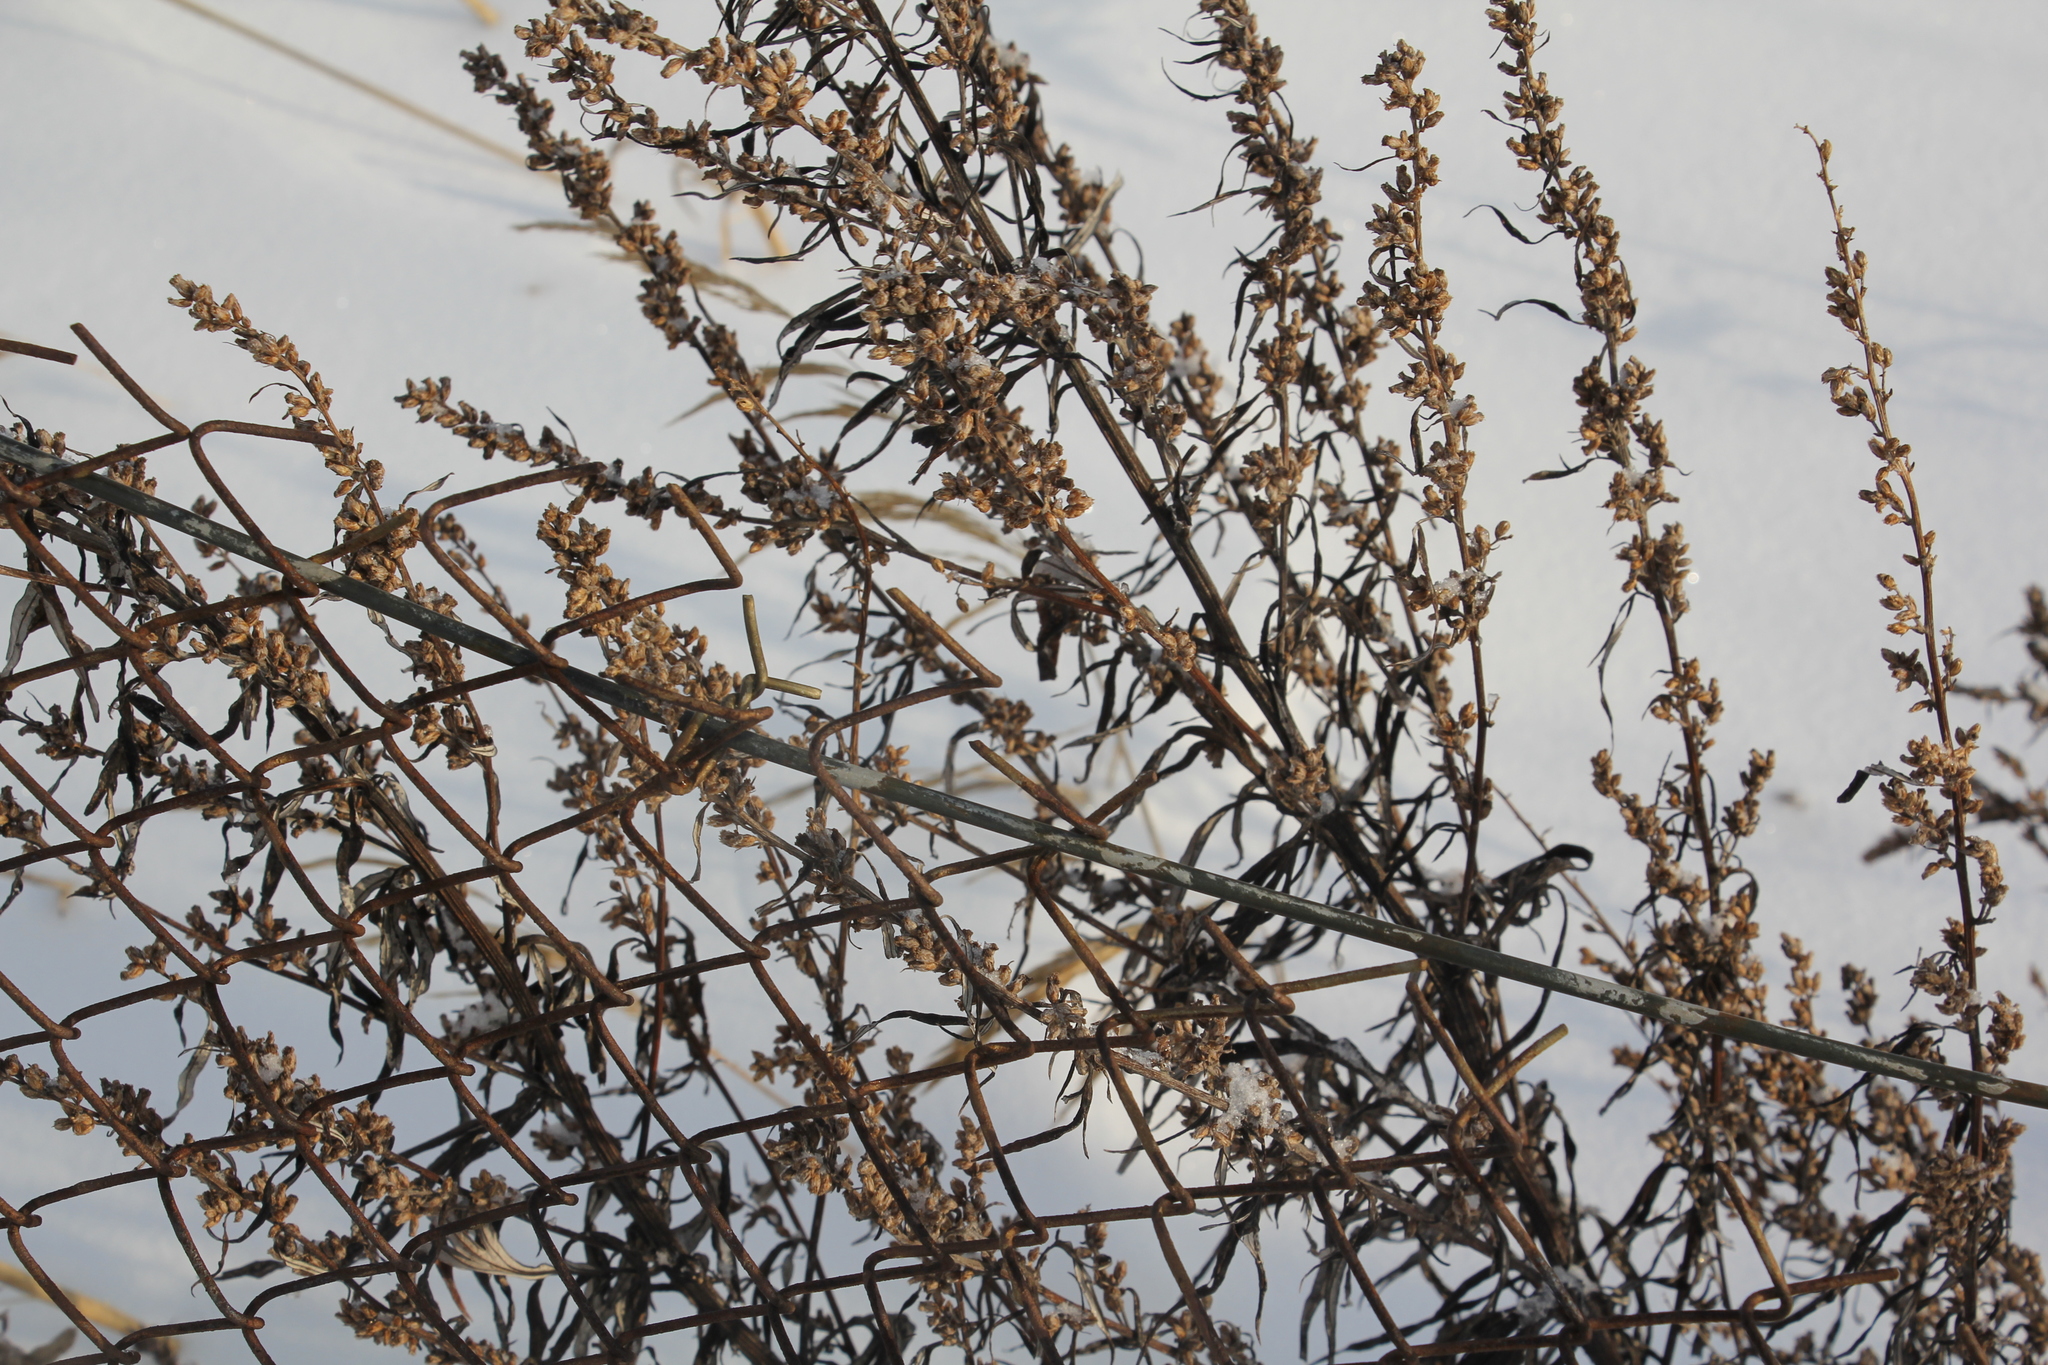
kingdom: Plantae
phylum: Tracheophyta
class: Magnoliopsida
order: Asterales
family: Asteraceae
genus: Artemisia
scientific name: Artemisia vulgaris
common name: Mugwort
